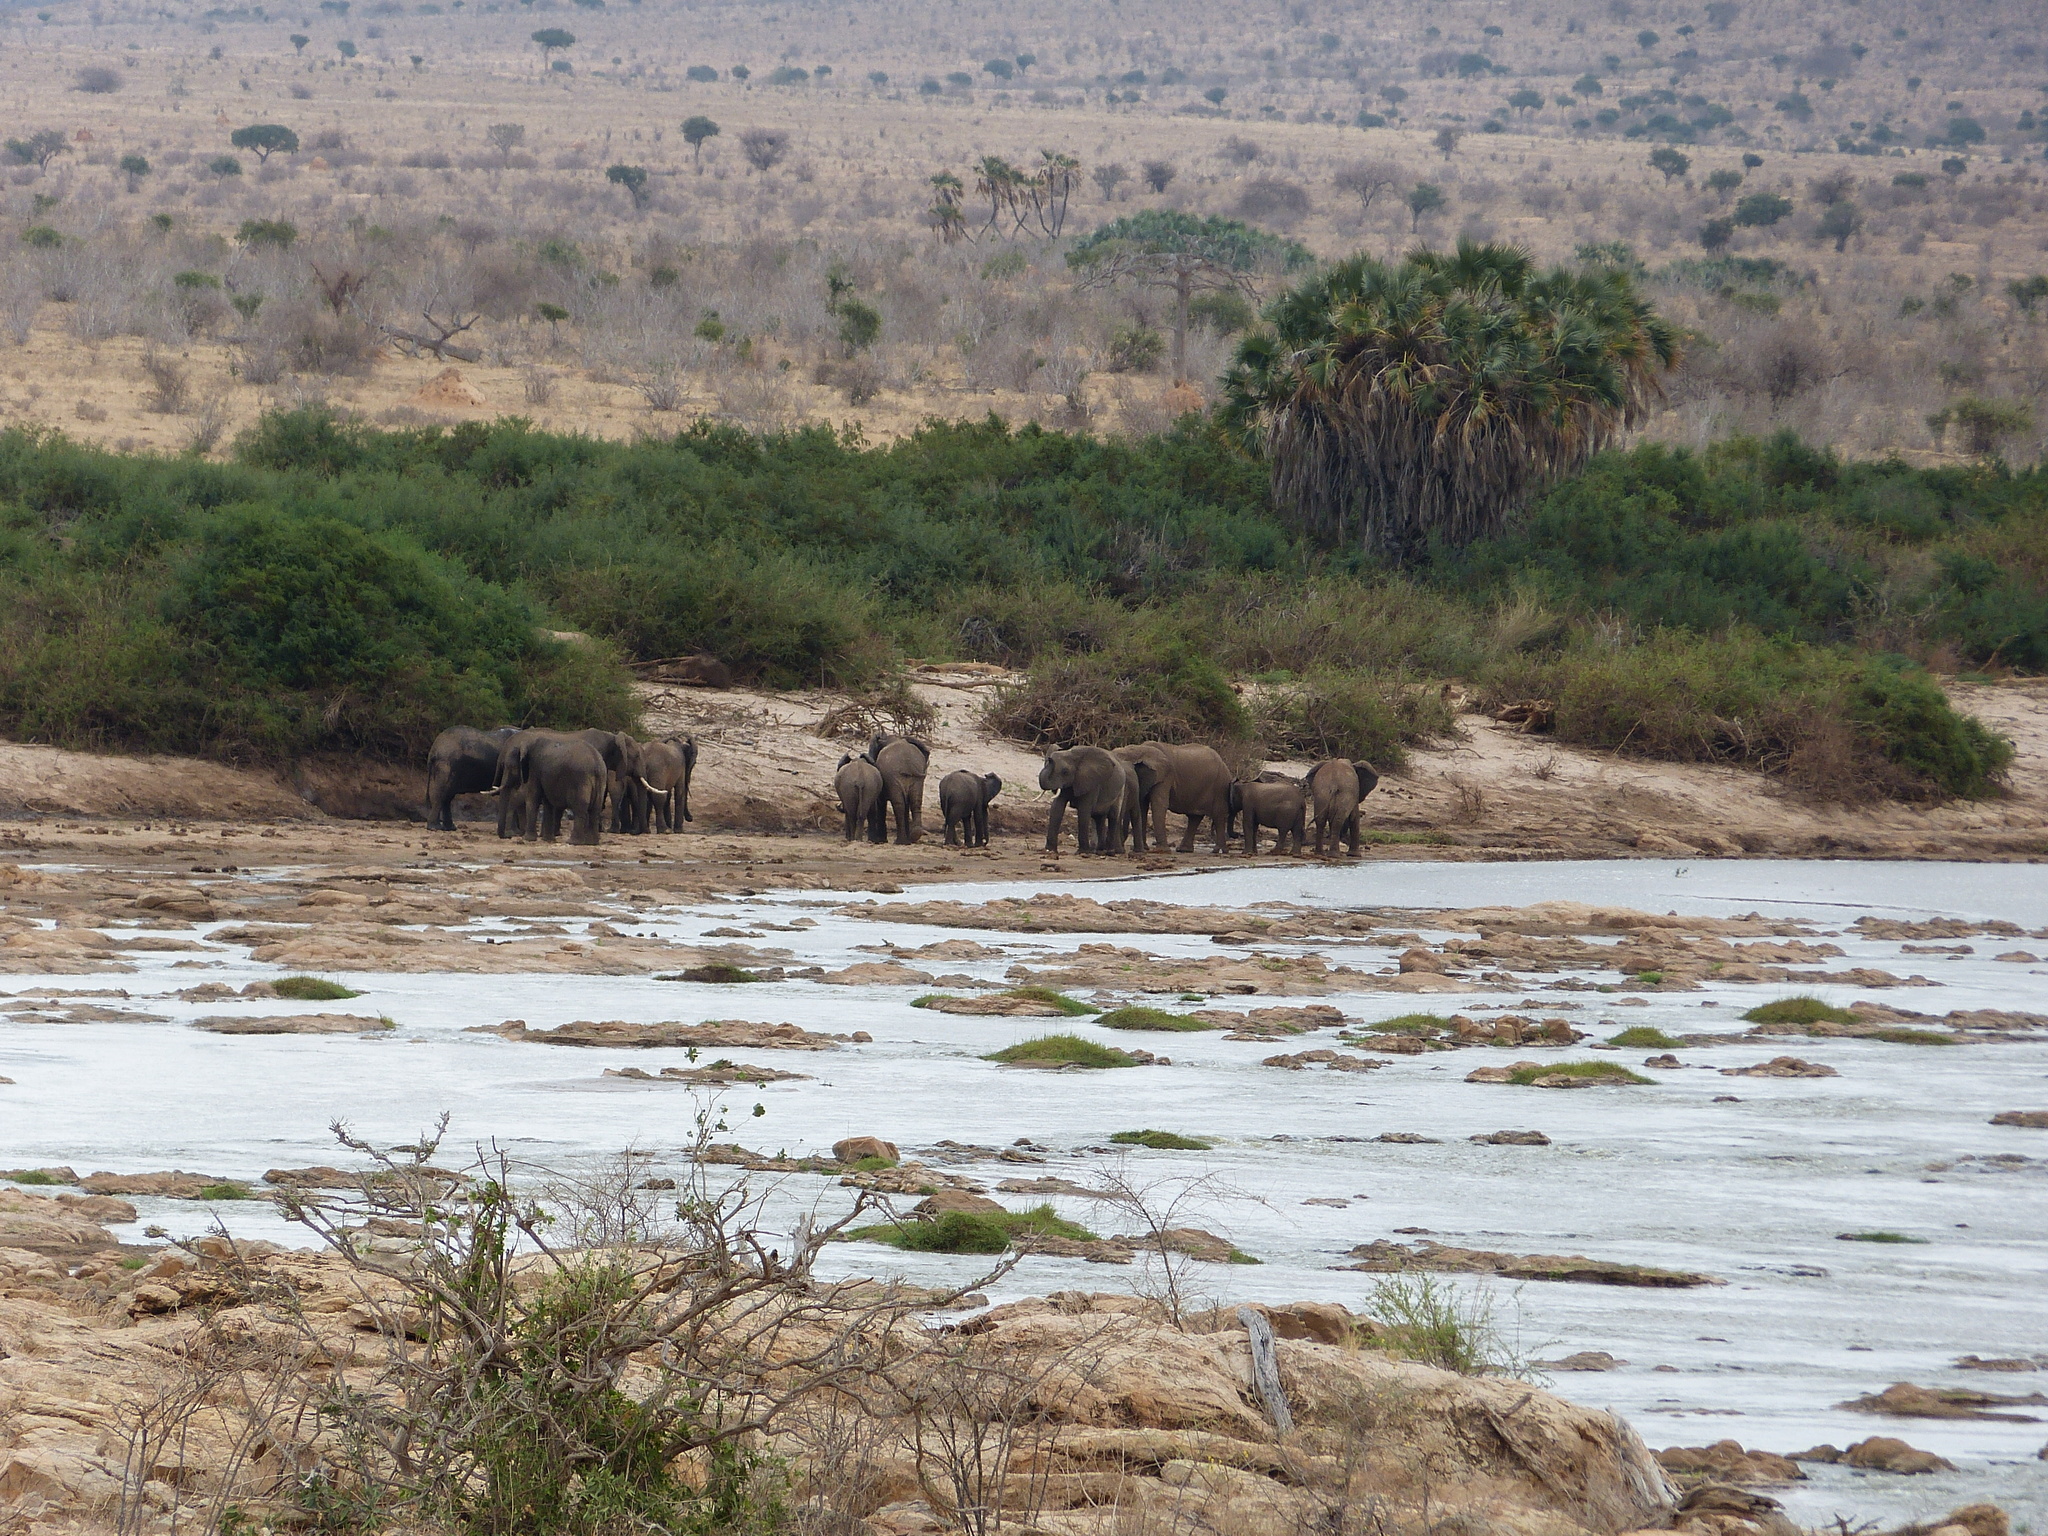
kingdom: Animalia
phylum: Chordata
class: Mammalia
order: Proboscidea
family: Elephantidae
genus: Loxodonta
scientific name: Loxodonta africana
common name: African elephant
